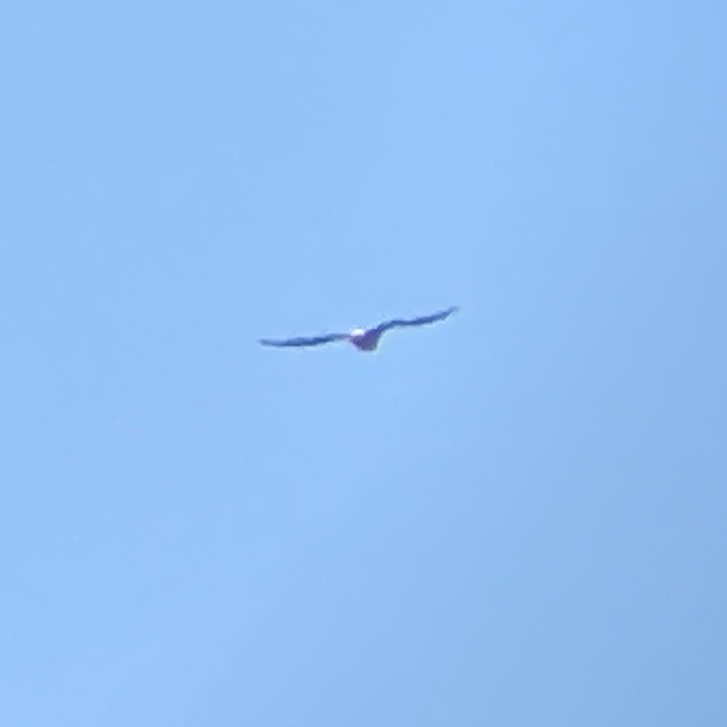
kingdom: Animalia
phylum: Chordata
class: Aves
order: Accipitriformes
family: Accipitridae
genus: Haliaeetus
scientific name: Haliaeetus leucocephalus
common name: Bald eagle
